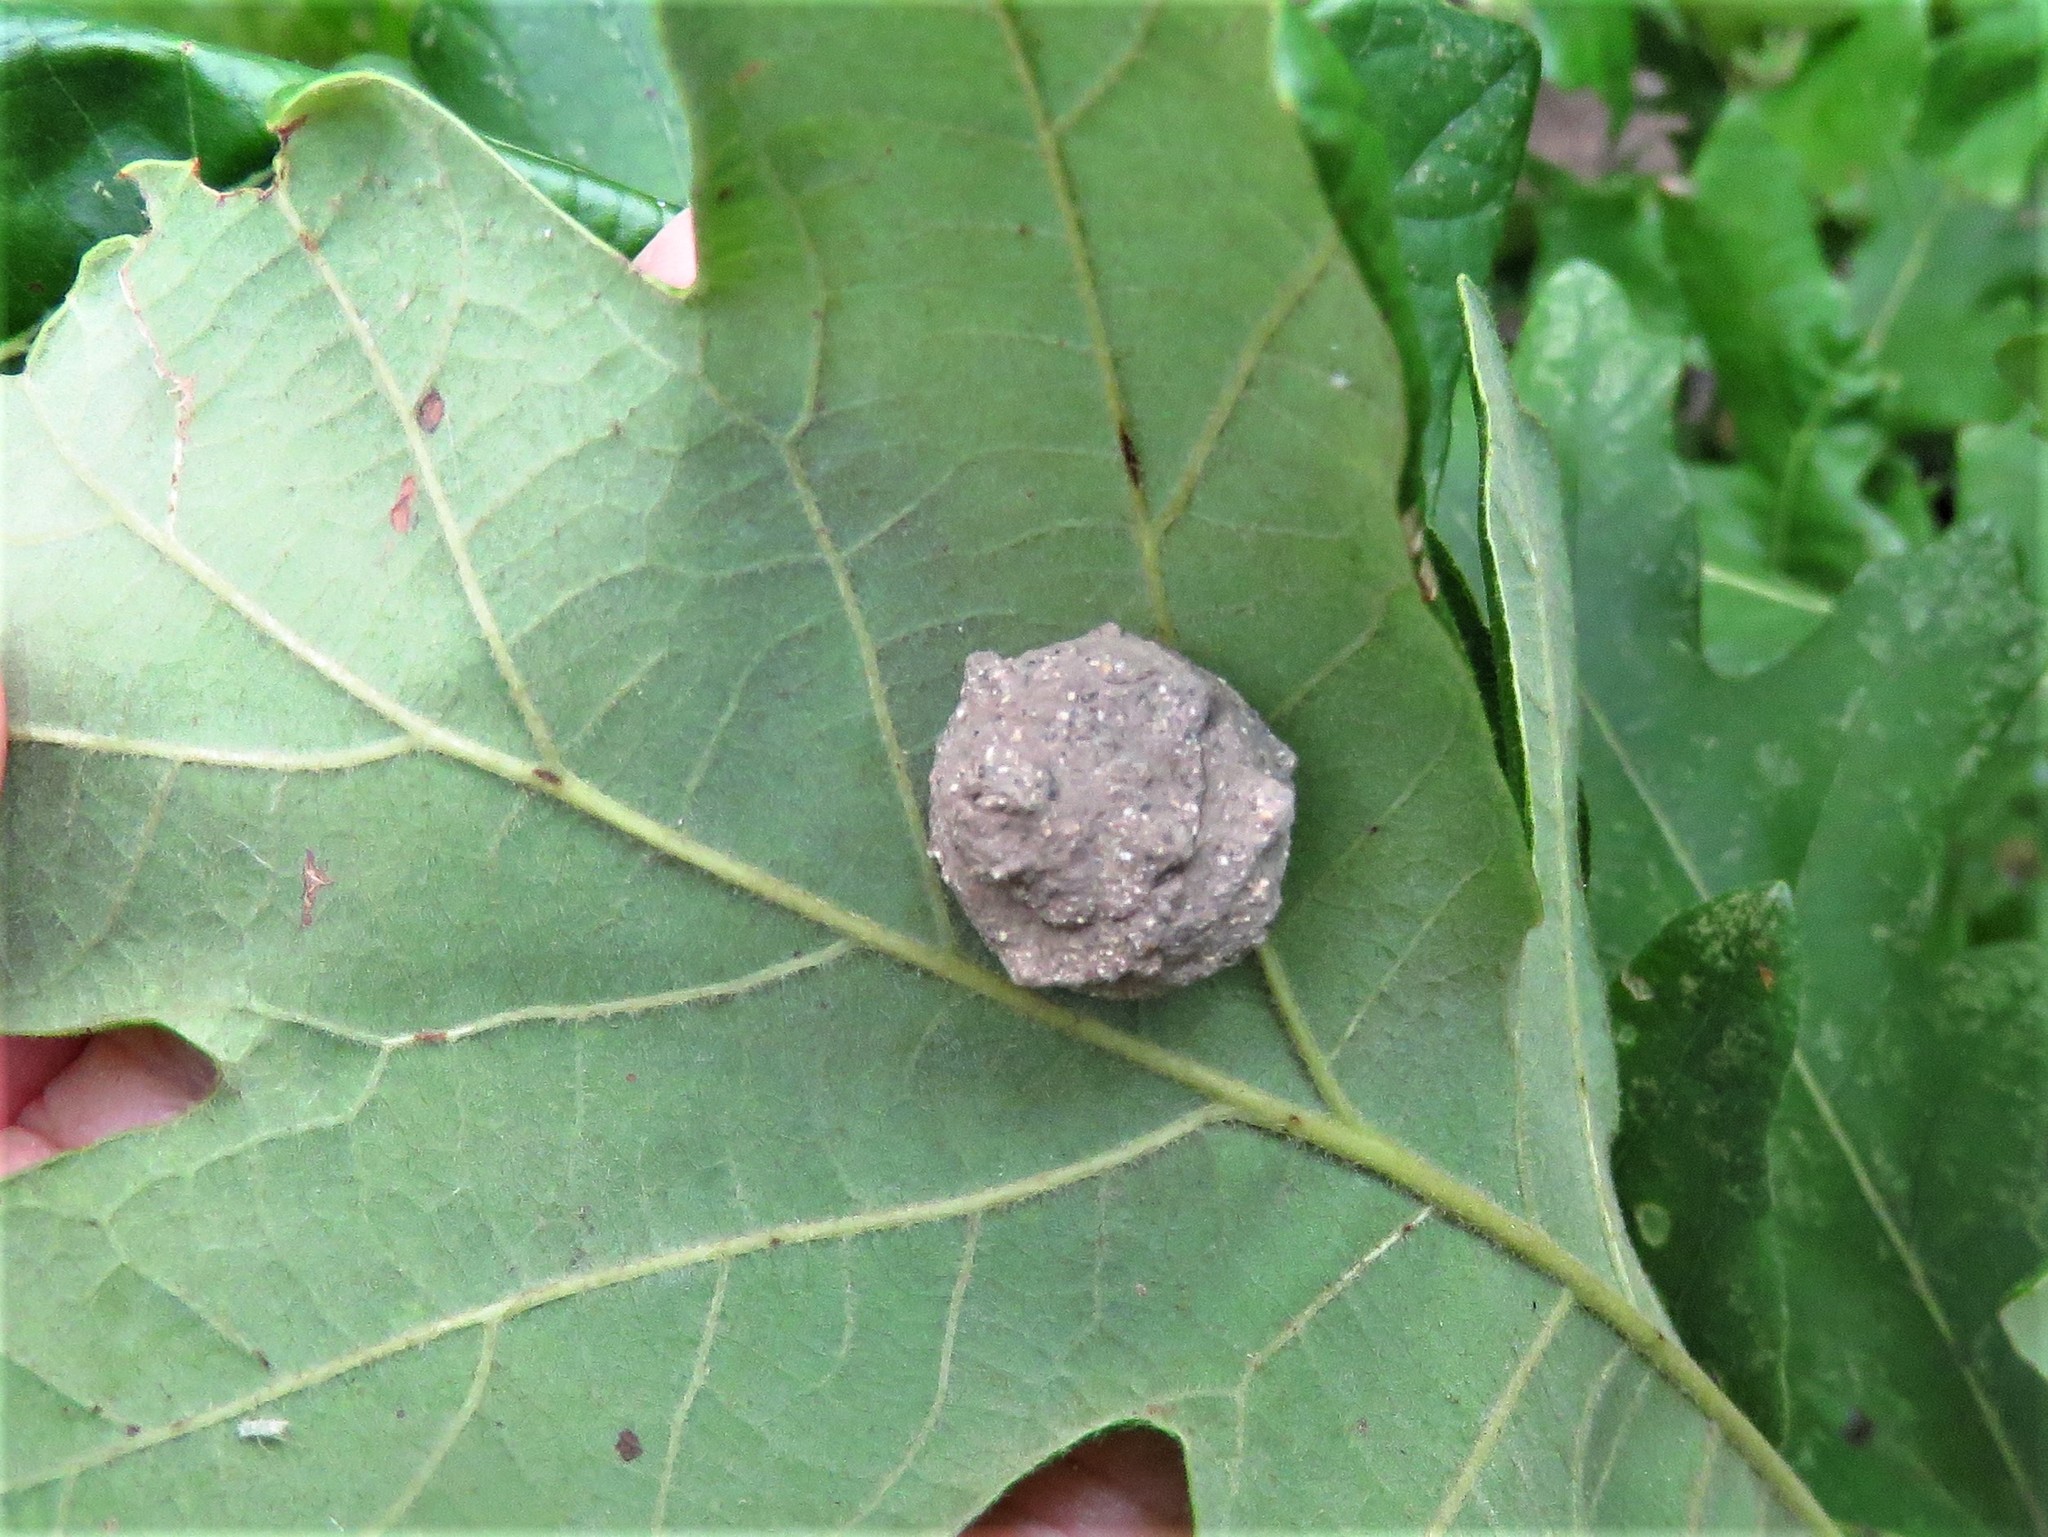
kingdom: Animalia
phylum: Arthropoda
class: Insecta
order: Hymenoptera
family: Vespidae
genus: Eumenes
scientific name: Eumenes
